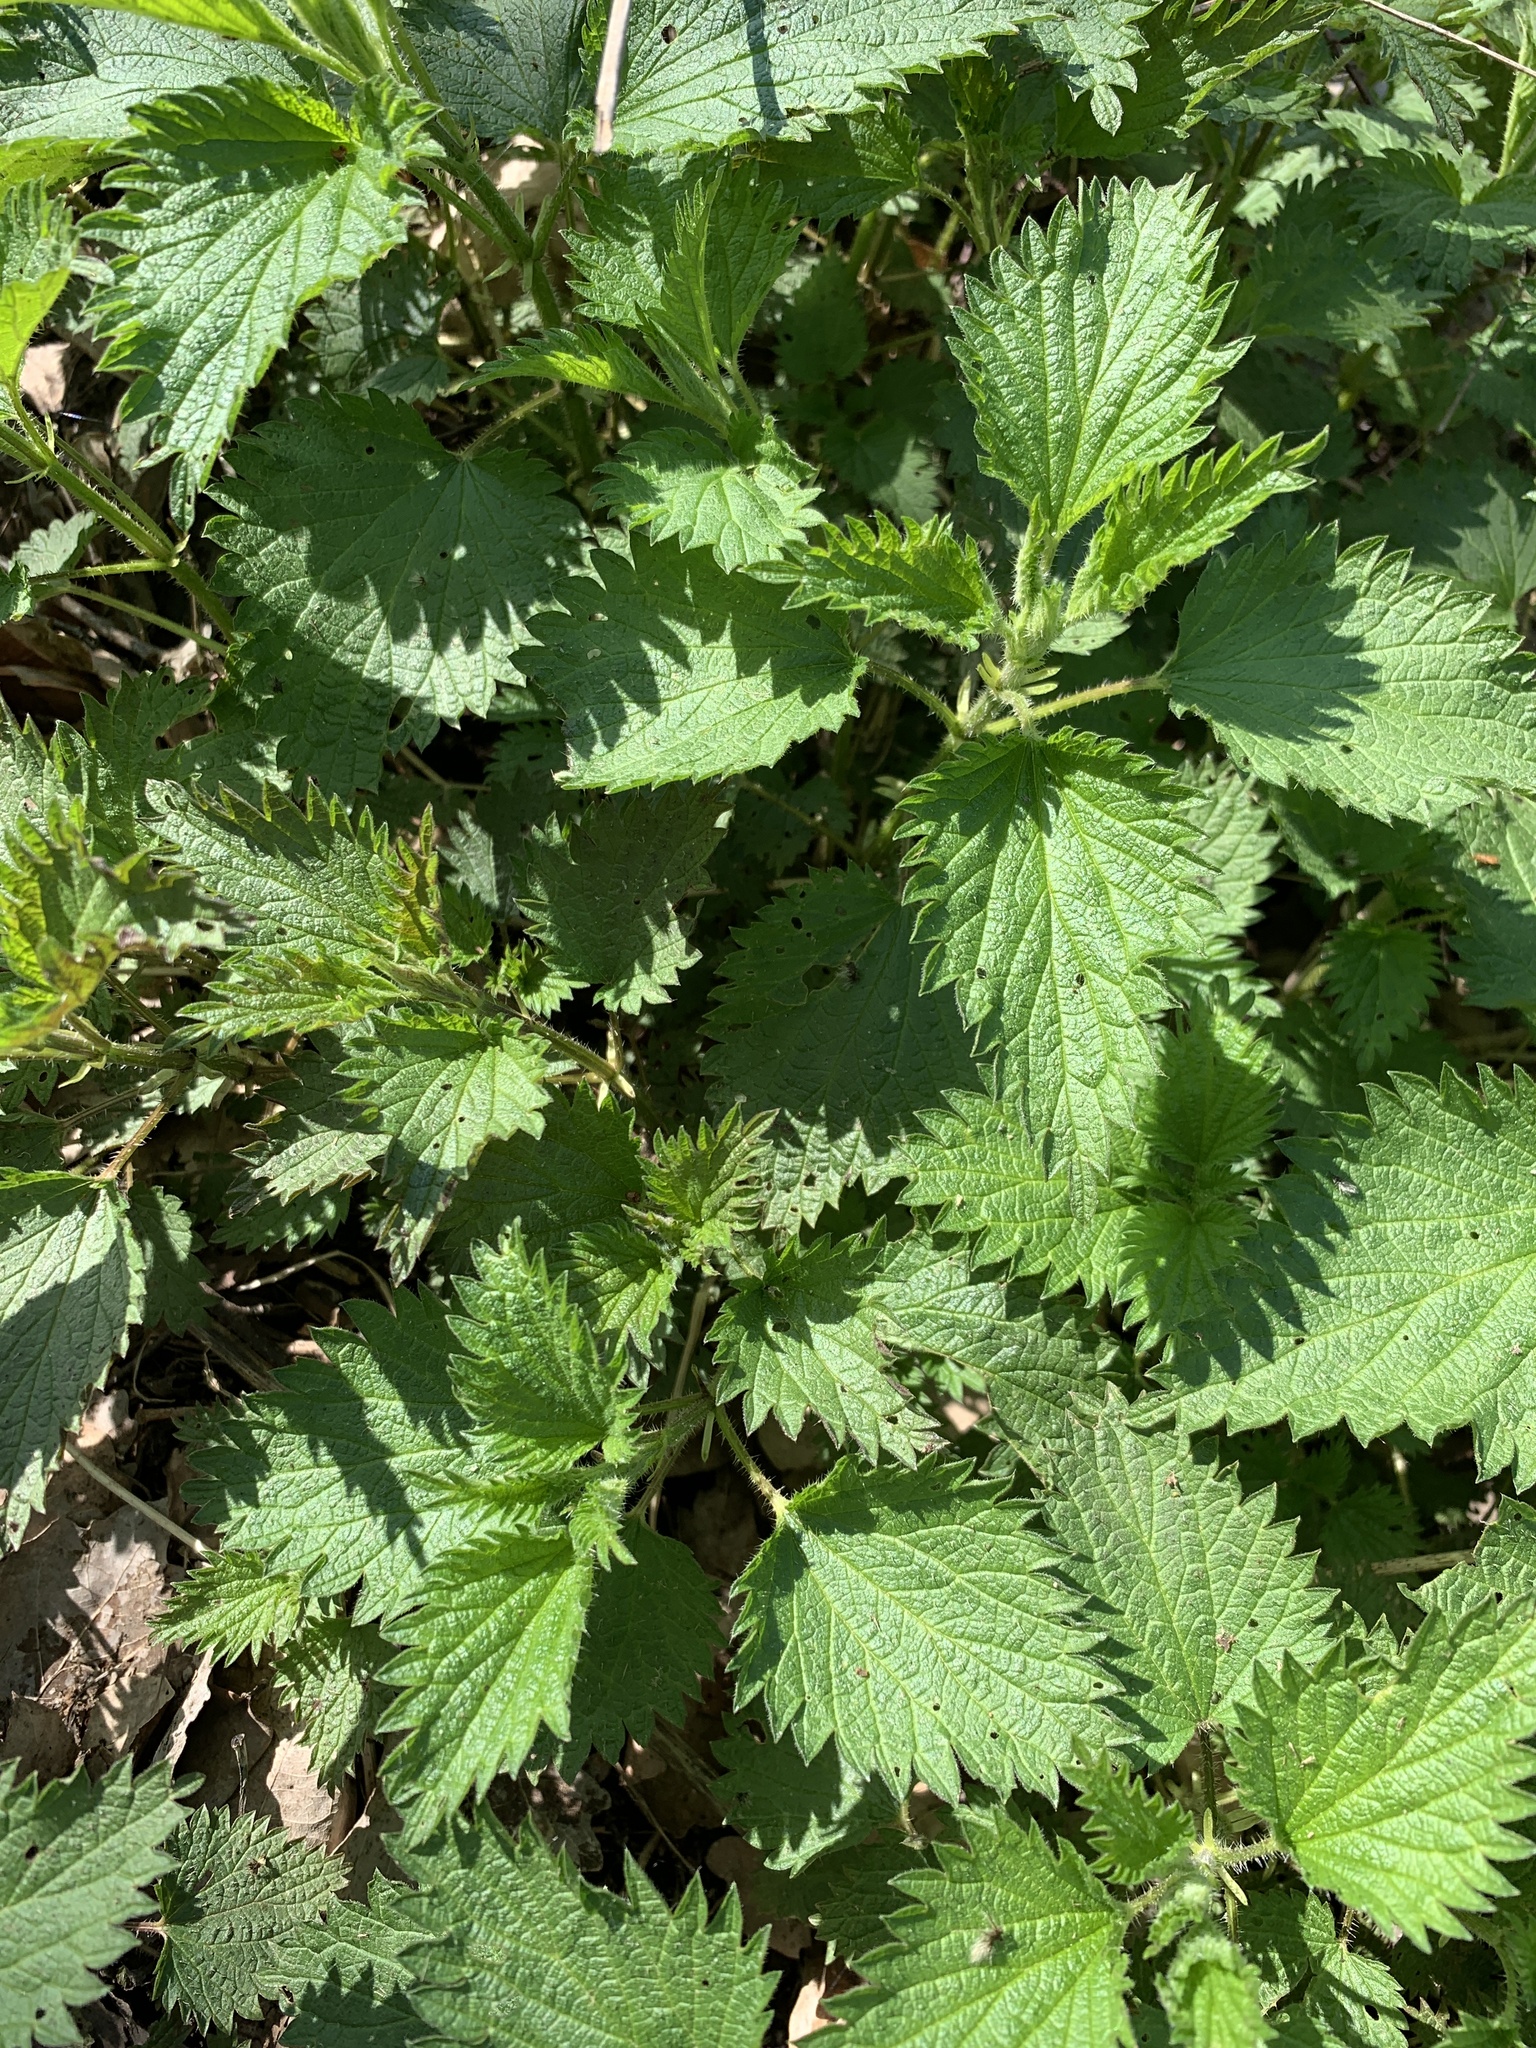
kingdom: Plantae
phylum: Tracheophyta
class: Magnoliopsida
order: Rosales
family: Urticaceae
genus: Urtica
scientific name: Urtica dioica
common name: Common nettle
